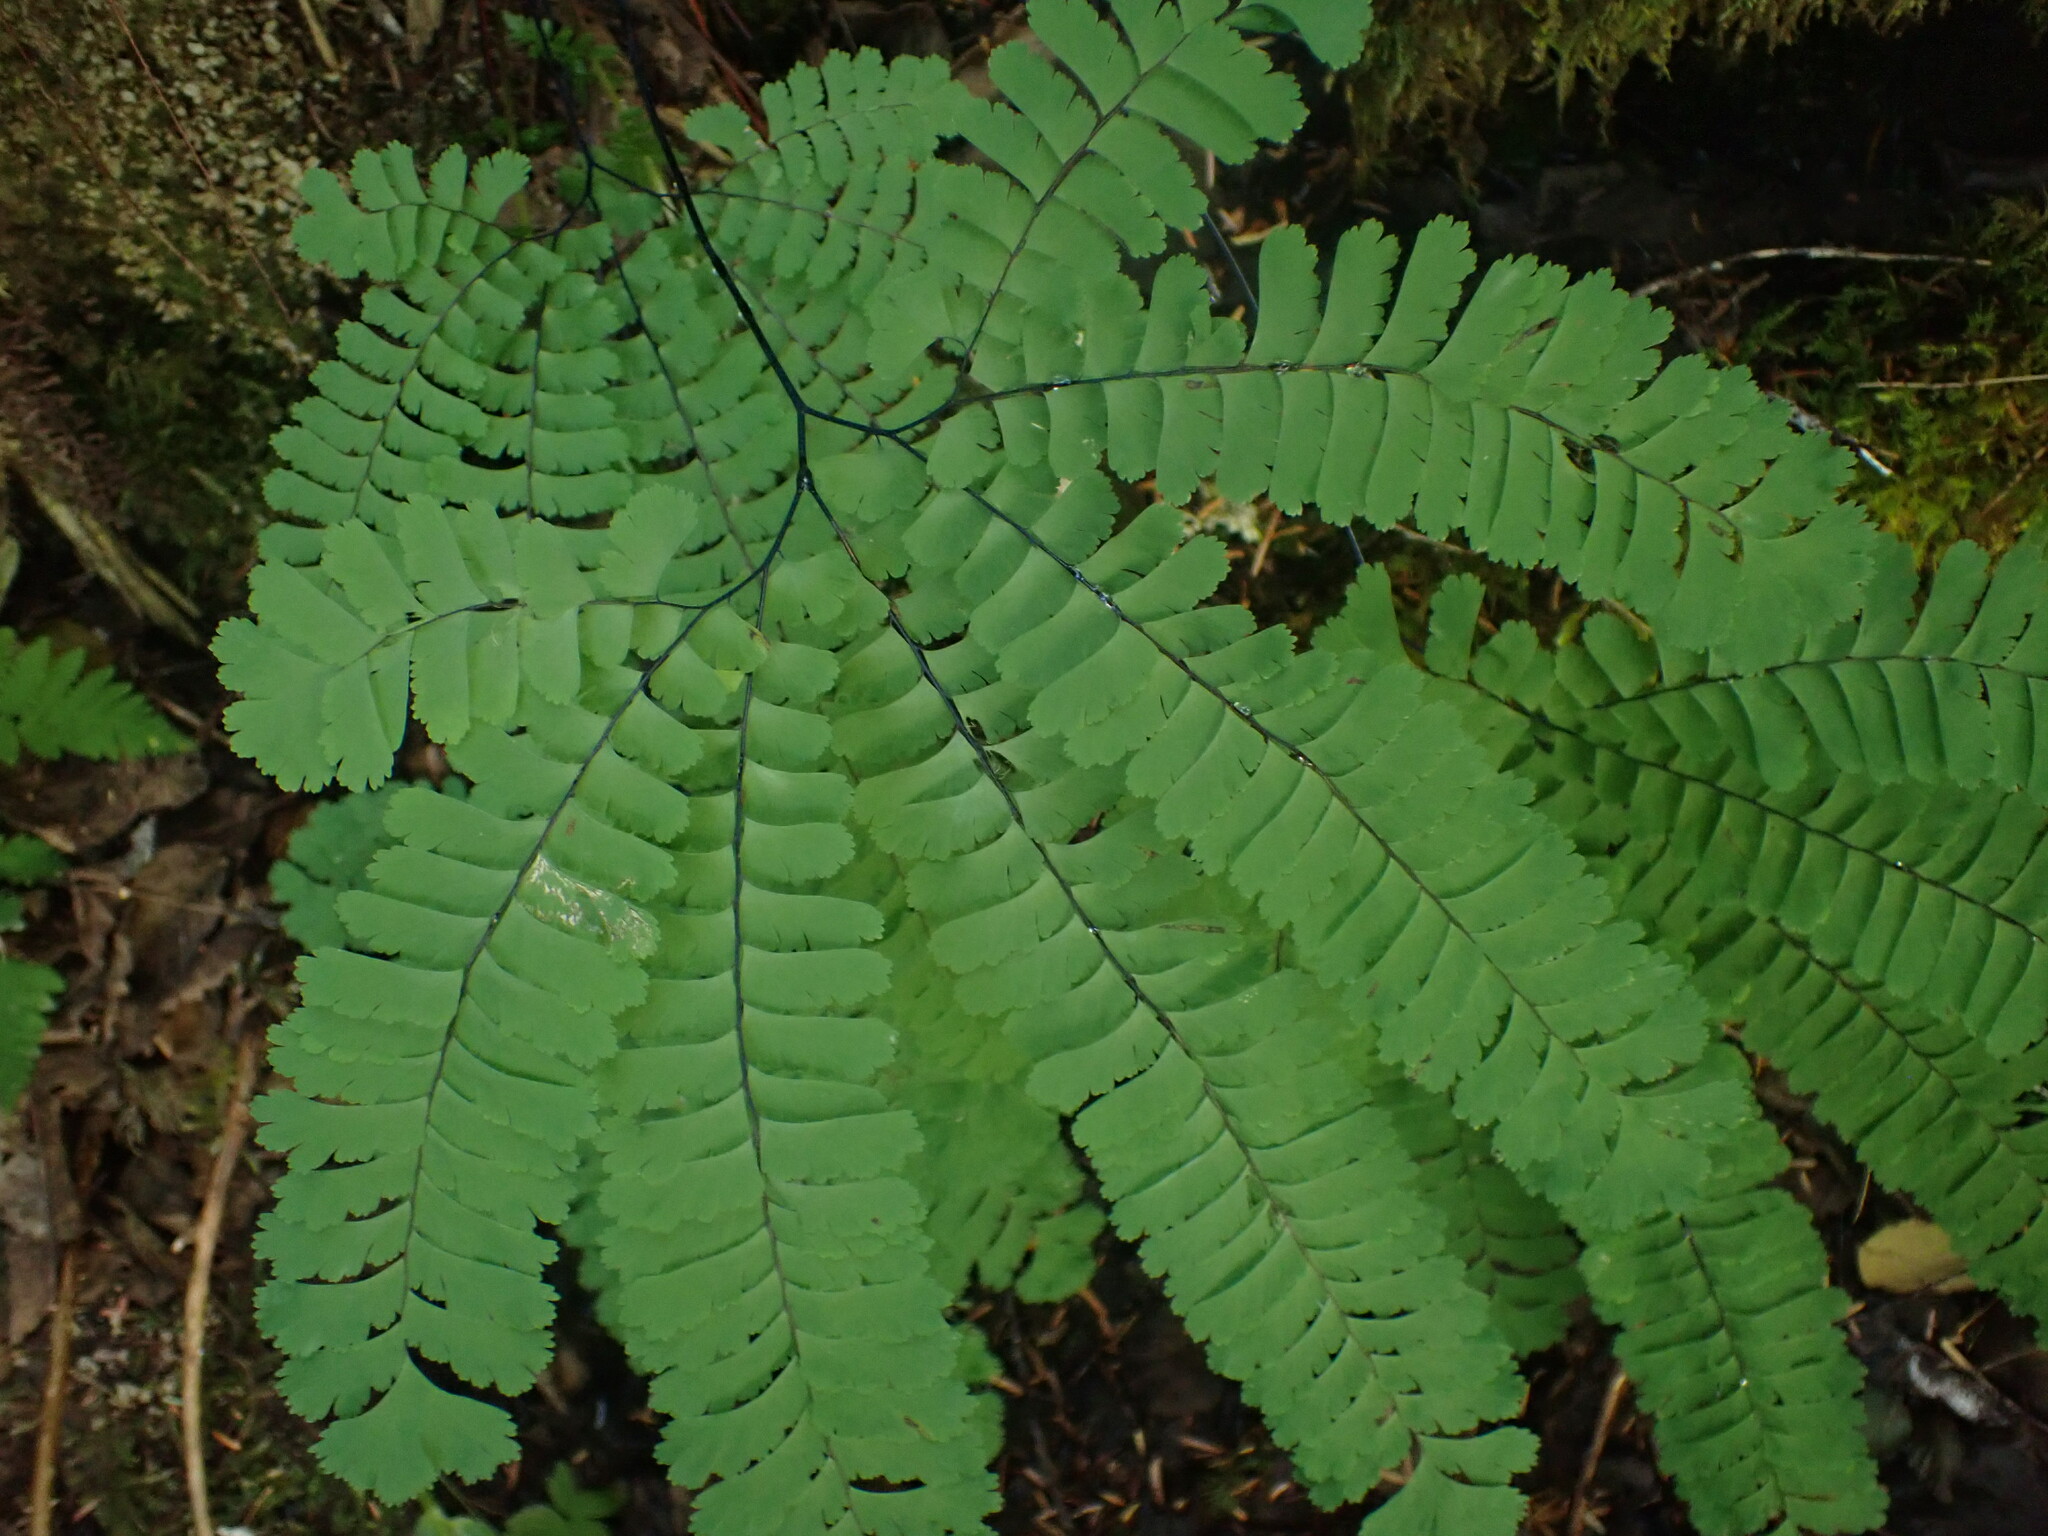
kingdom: Plantae
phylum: Tracheophyta
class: Polypodiopsida
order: Polypodiales
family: Pteridaceae
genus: Adiantum
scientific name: Adiantum aleuticum
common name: Aleutian maidenhair fern
